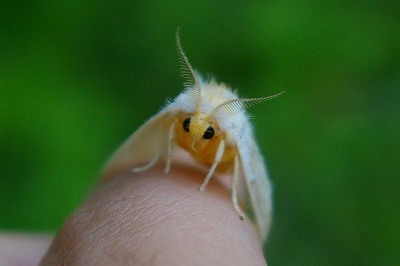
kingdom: Animalia
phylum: Arthropoda
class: Insecta
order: Lepidoptera
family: Erebidae
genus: Perina
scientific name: Perina nuda
